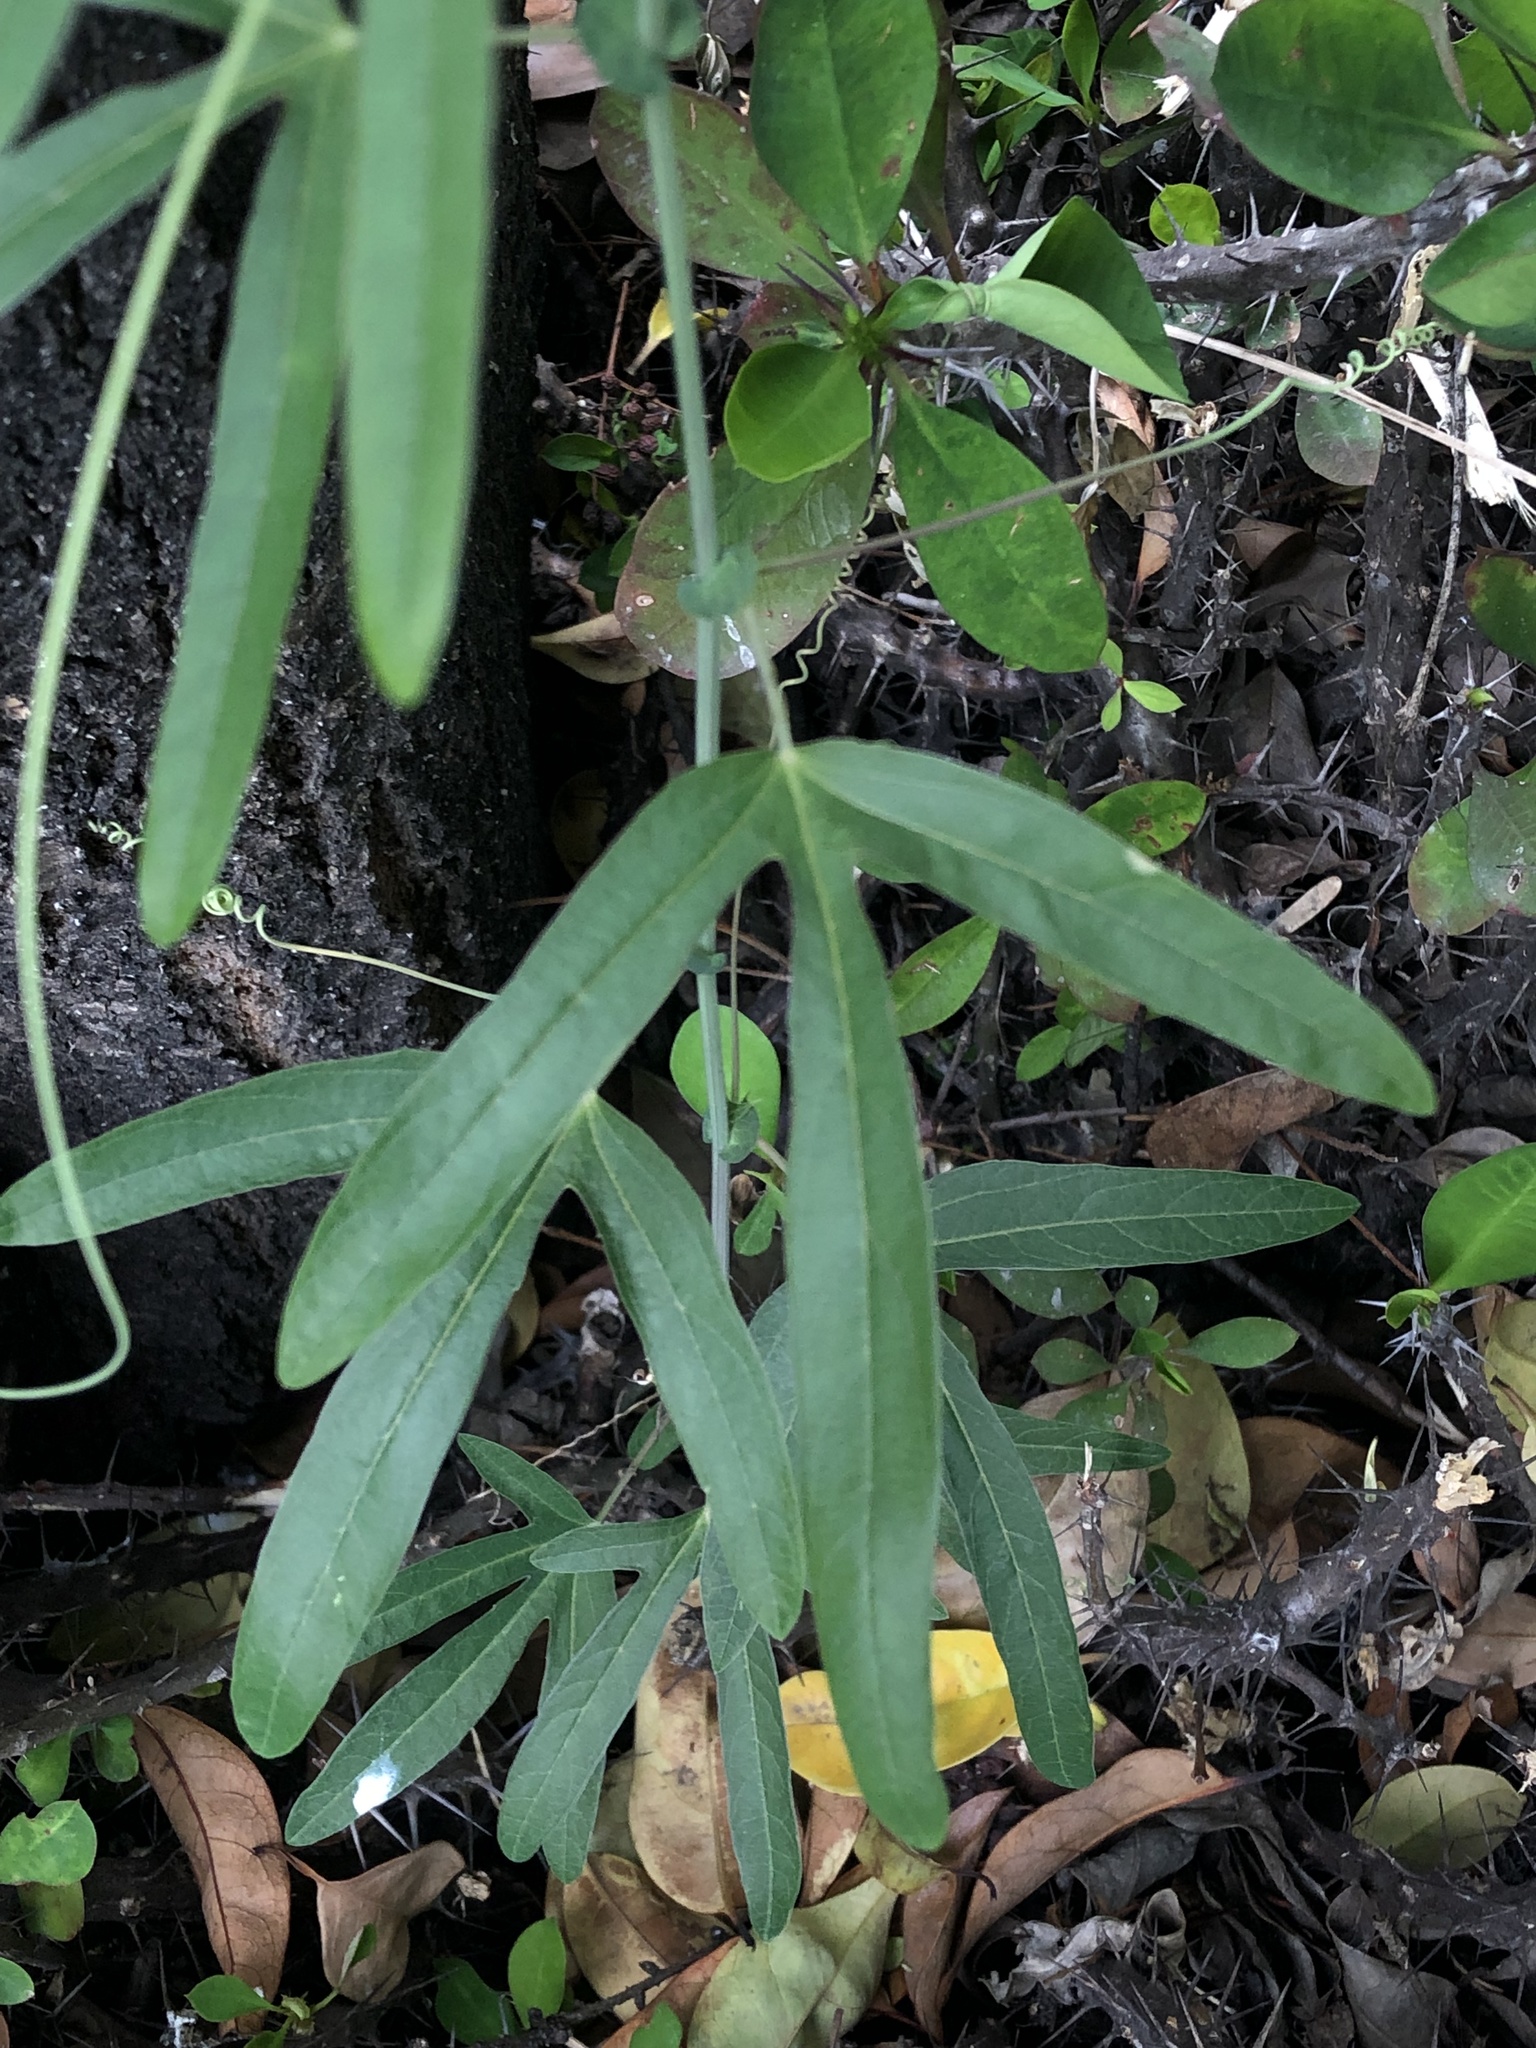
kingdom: Plantae
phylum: Tracheophyta
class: Magnoliopsida
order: Malpighiales
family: Passifloraceae
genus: Passiflora
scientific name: Passiflora caerulea
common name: Blue passionflower
